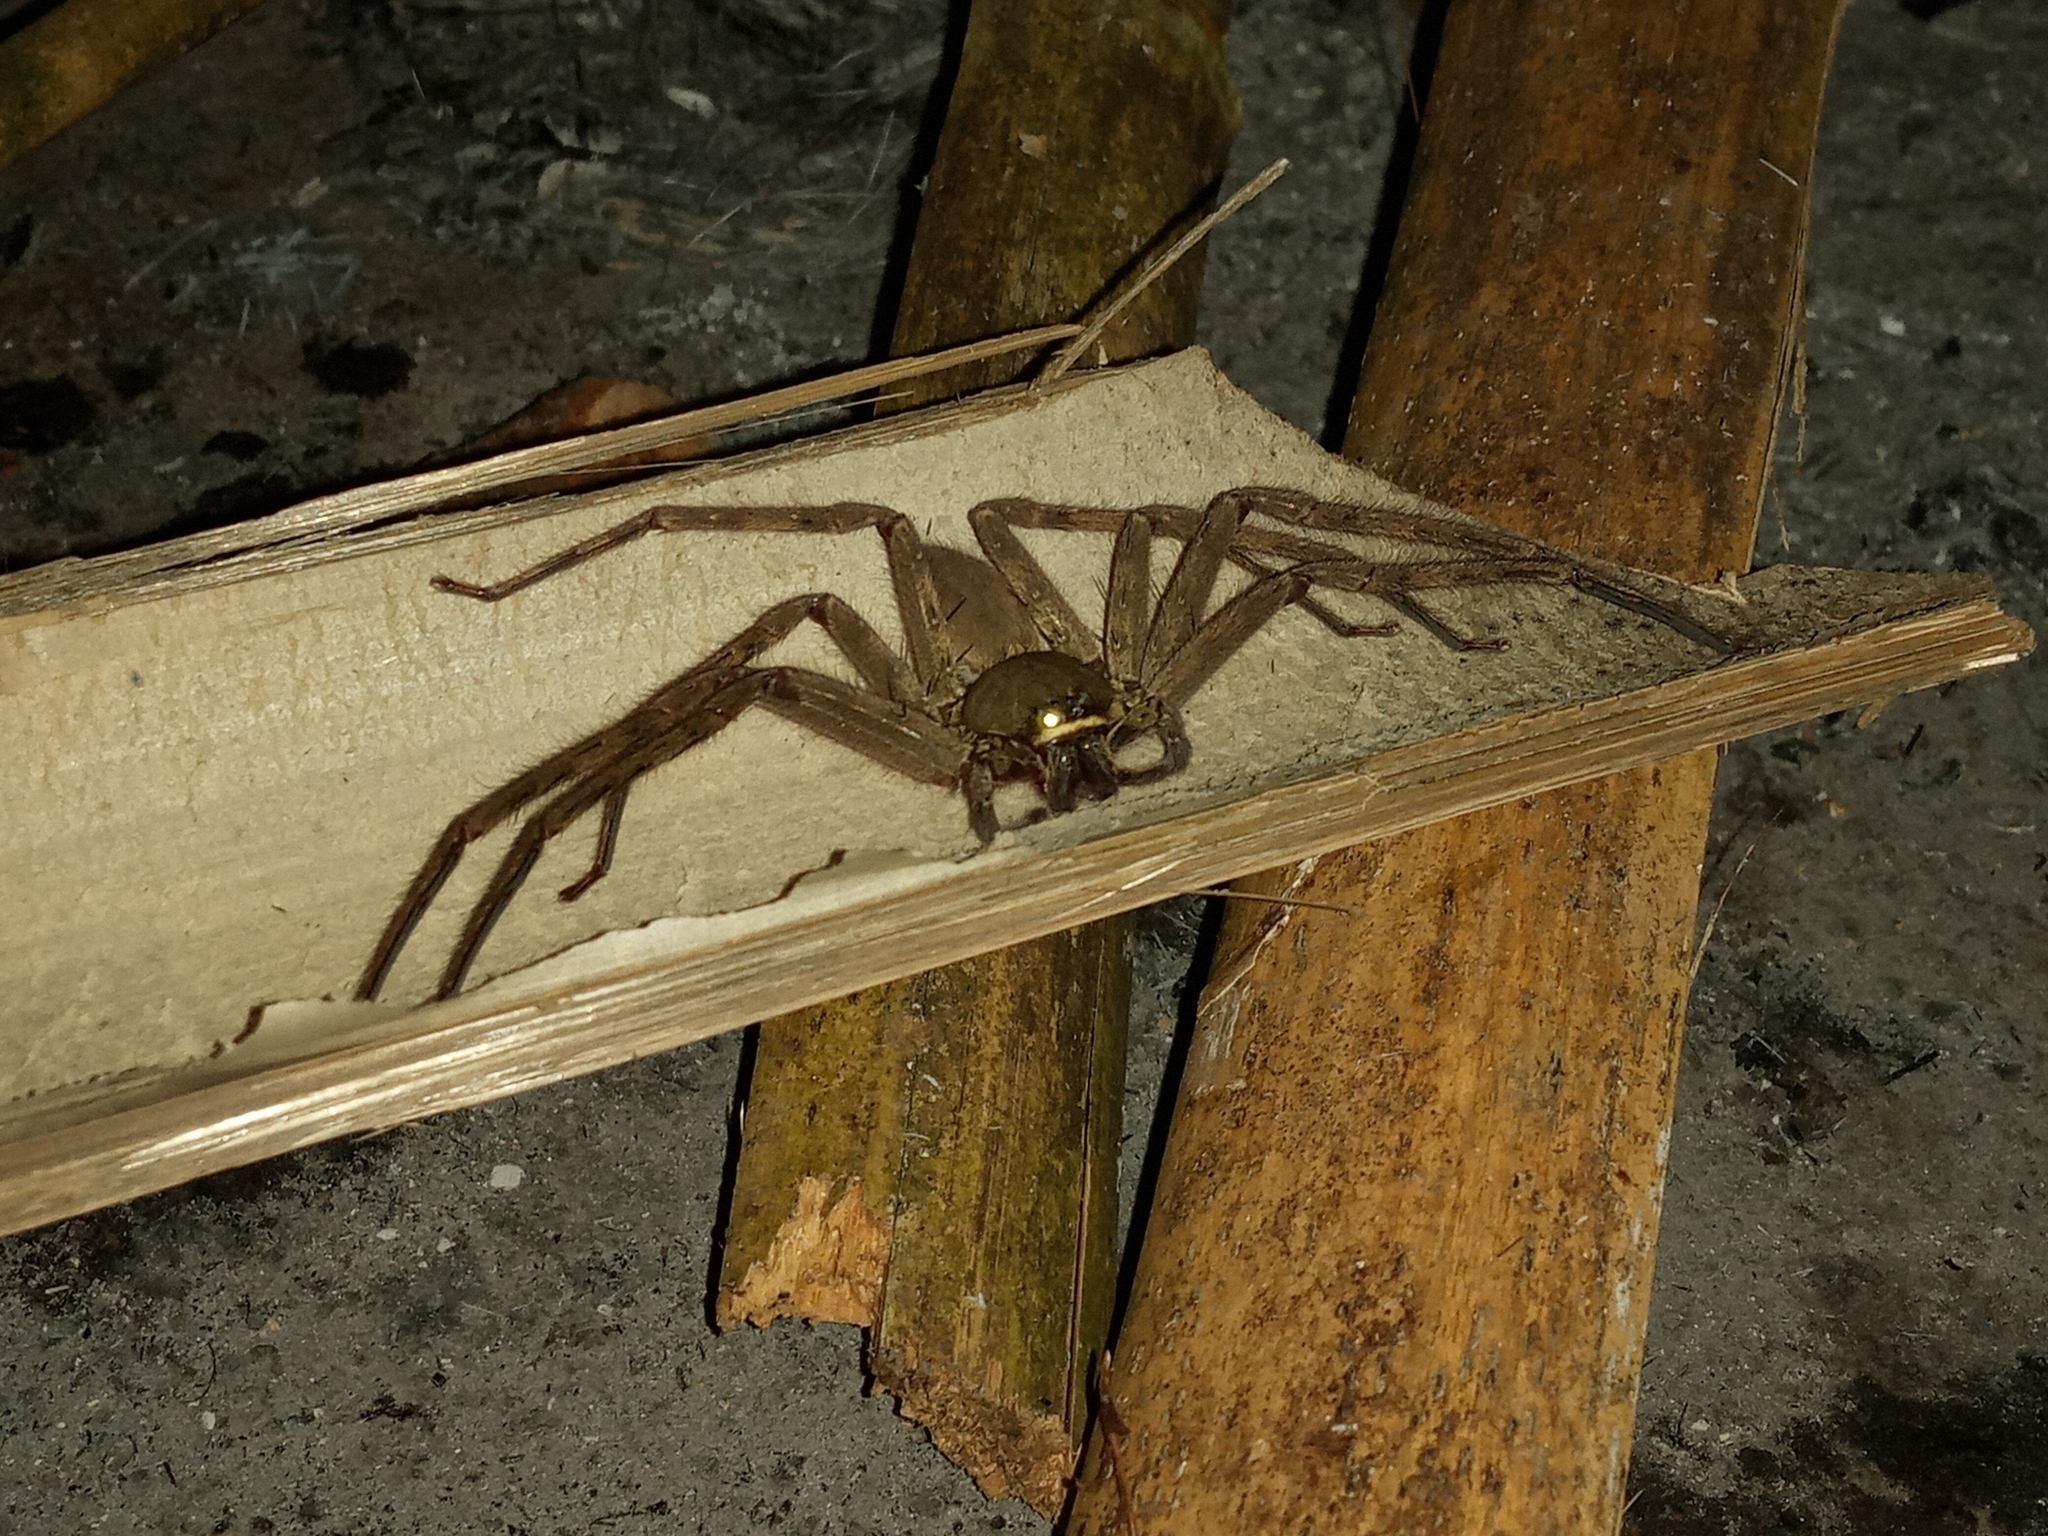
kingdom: Animalia
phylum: Arthropoda
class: Arachnida
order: Araneae
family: Sparassidae
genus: Heteropoda
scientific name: Heteropoda venatoria
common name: Huntsman spider
